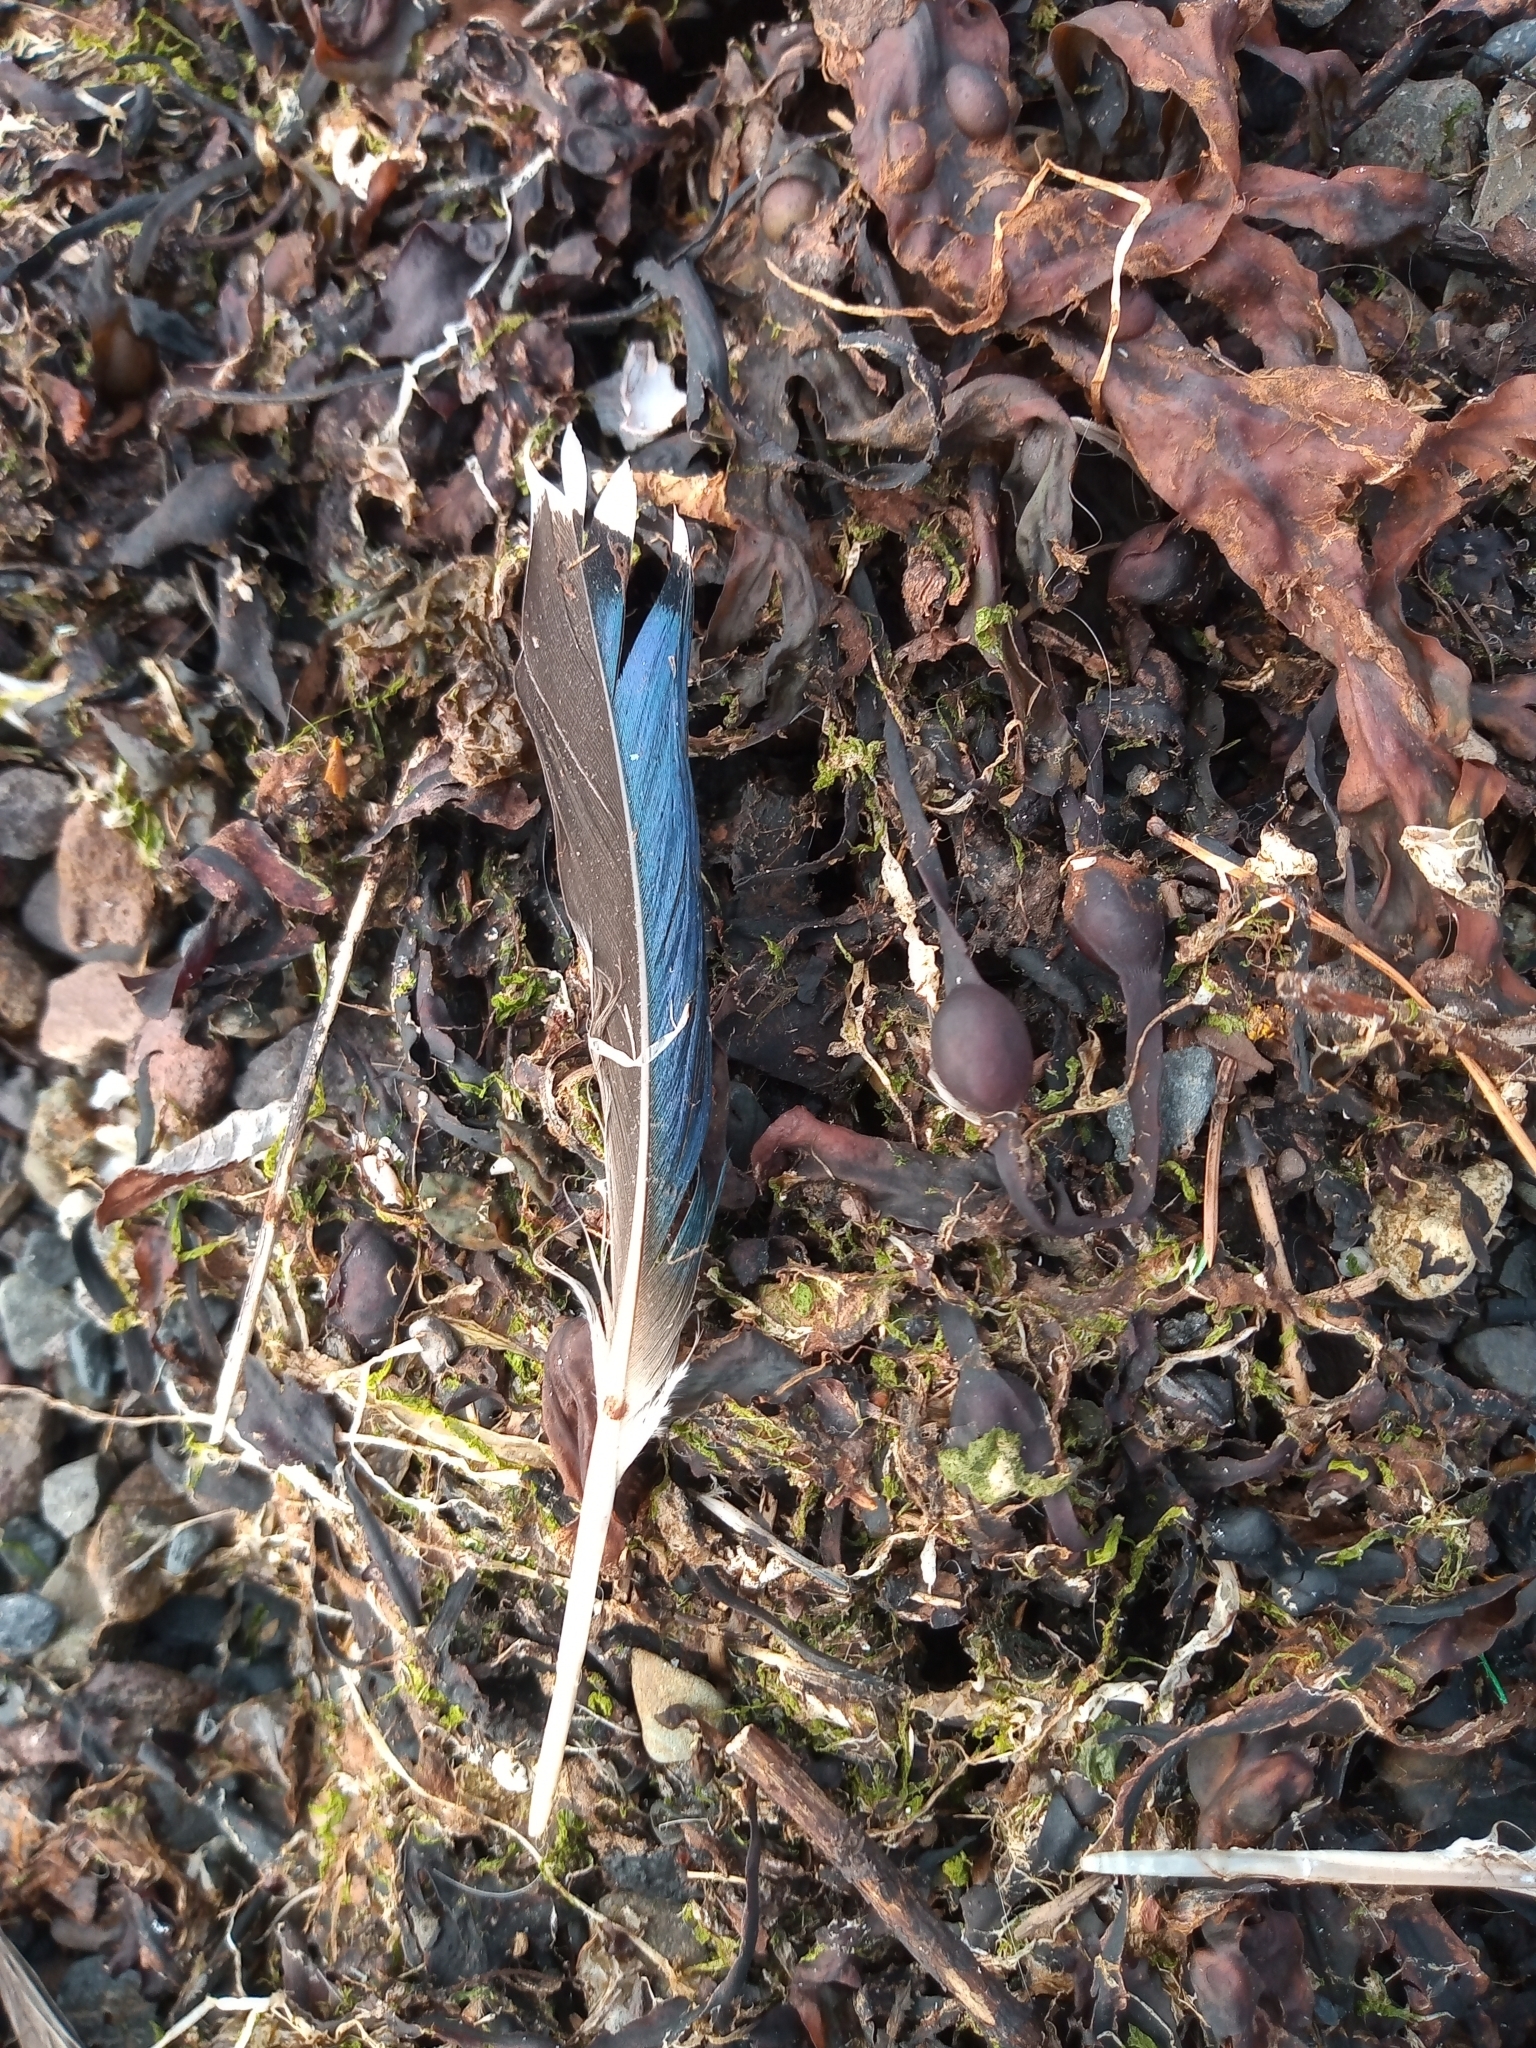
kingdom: Animalia
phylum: Chordata
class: Aves
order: Anseriformes
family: Anatidae
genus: Anas
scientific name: Anas platyrhynchos
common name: Mallard
